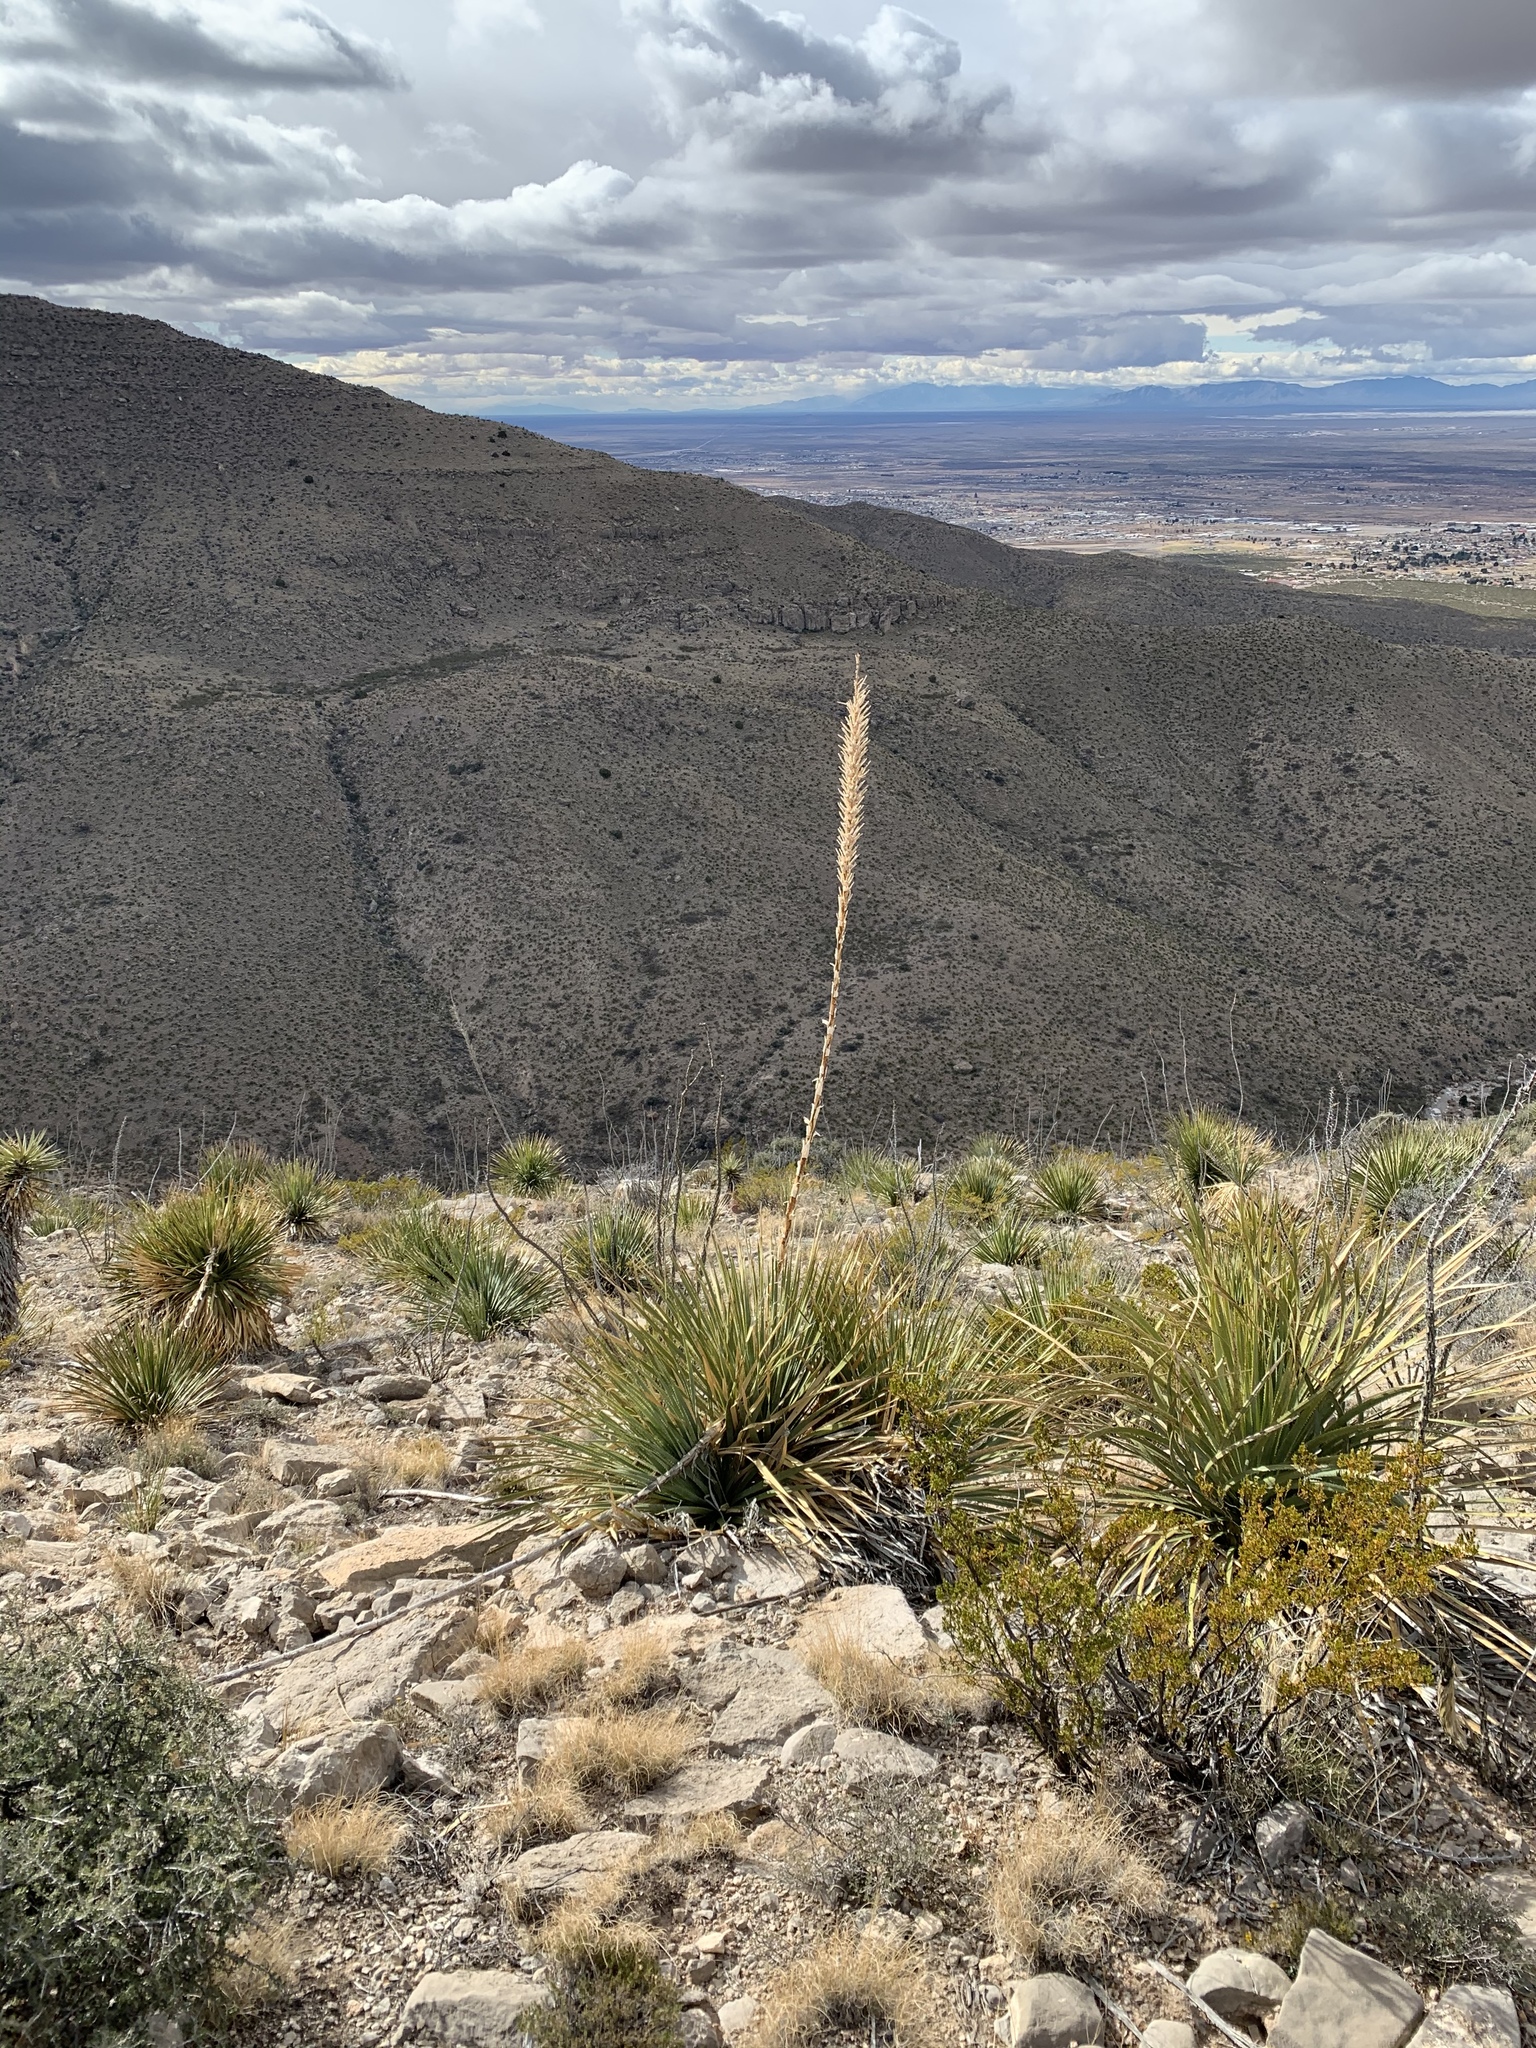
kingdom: Plantae
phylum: Tracheophyta
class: Liliopsida
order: Asparagales
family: Asparagaceae
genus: Dasylirion
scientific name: Dasylirion wheeleri
